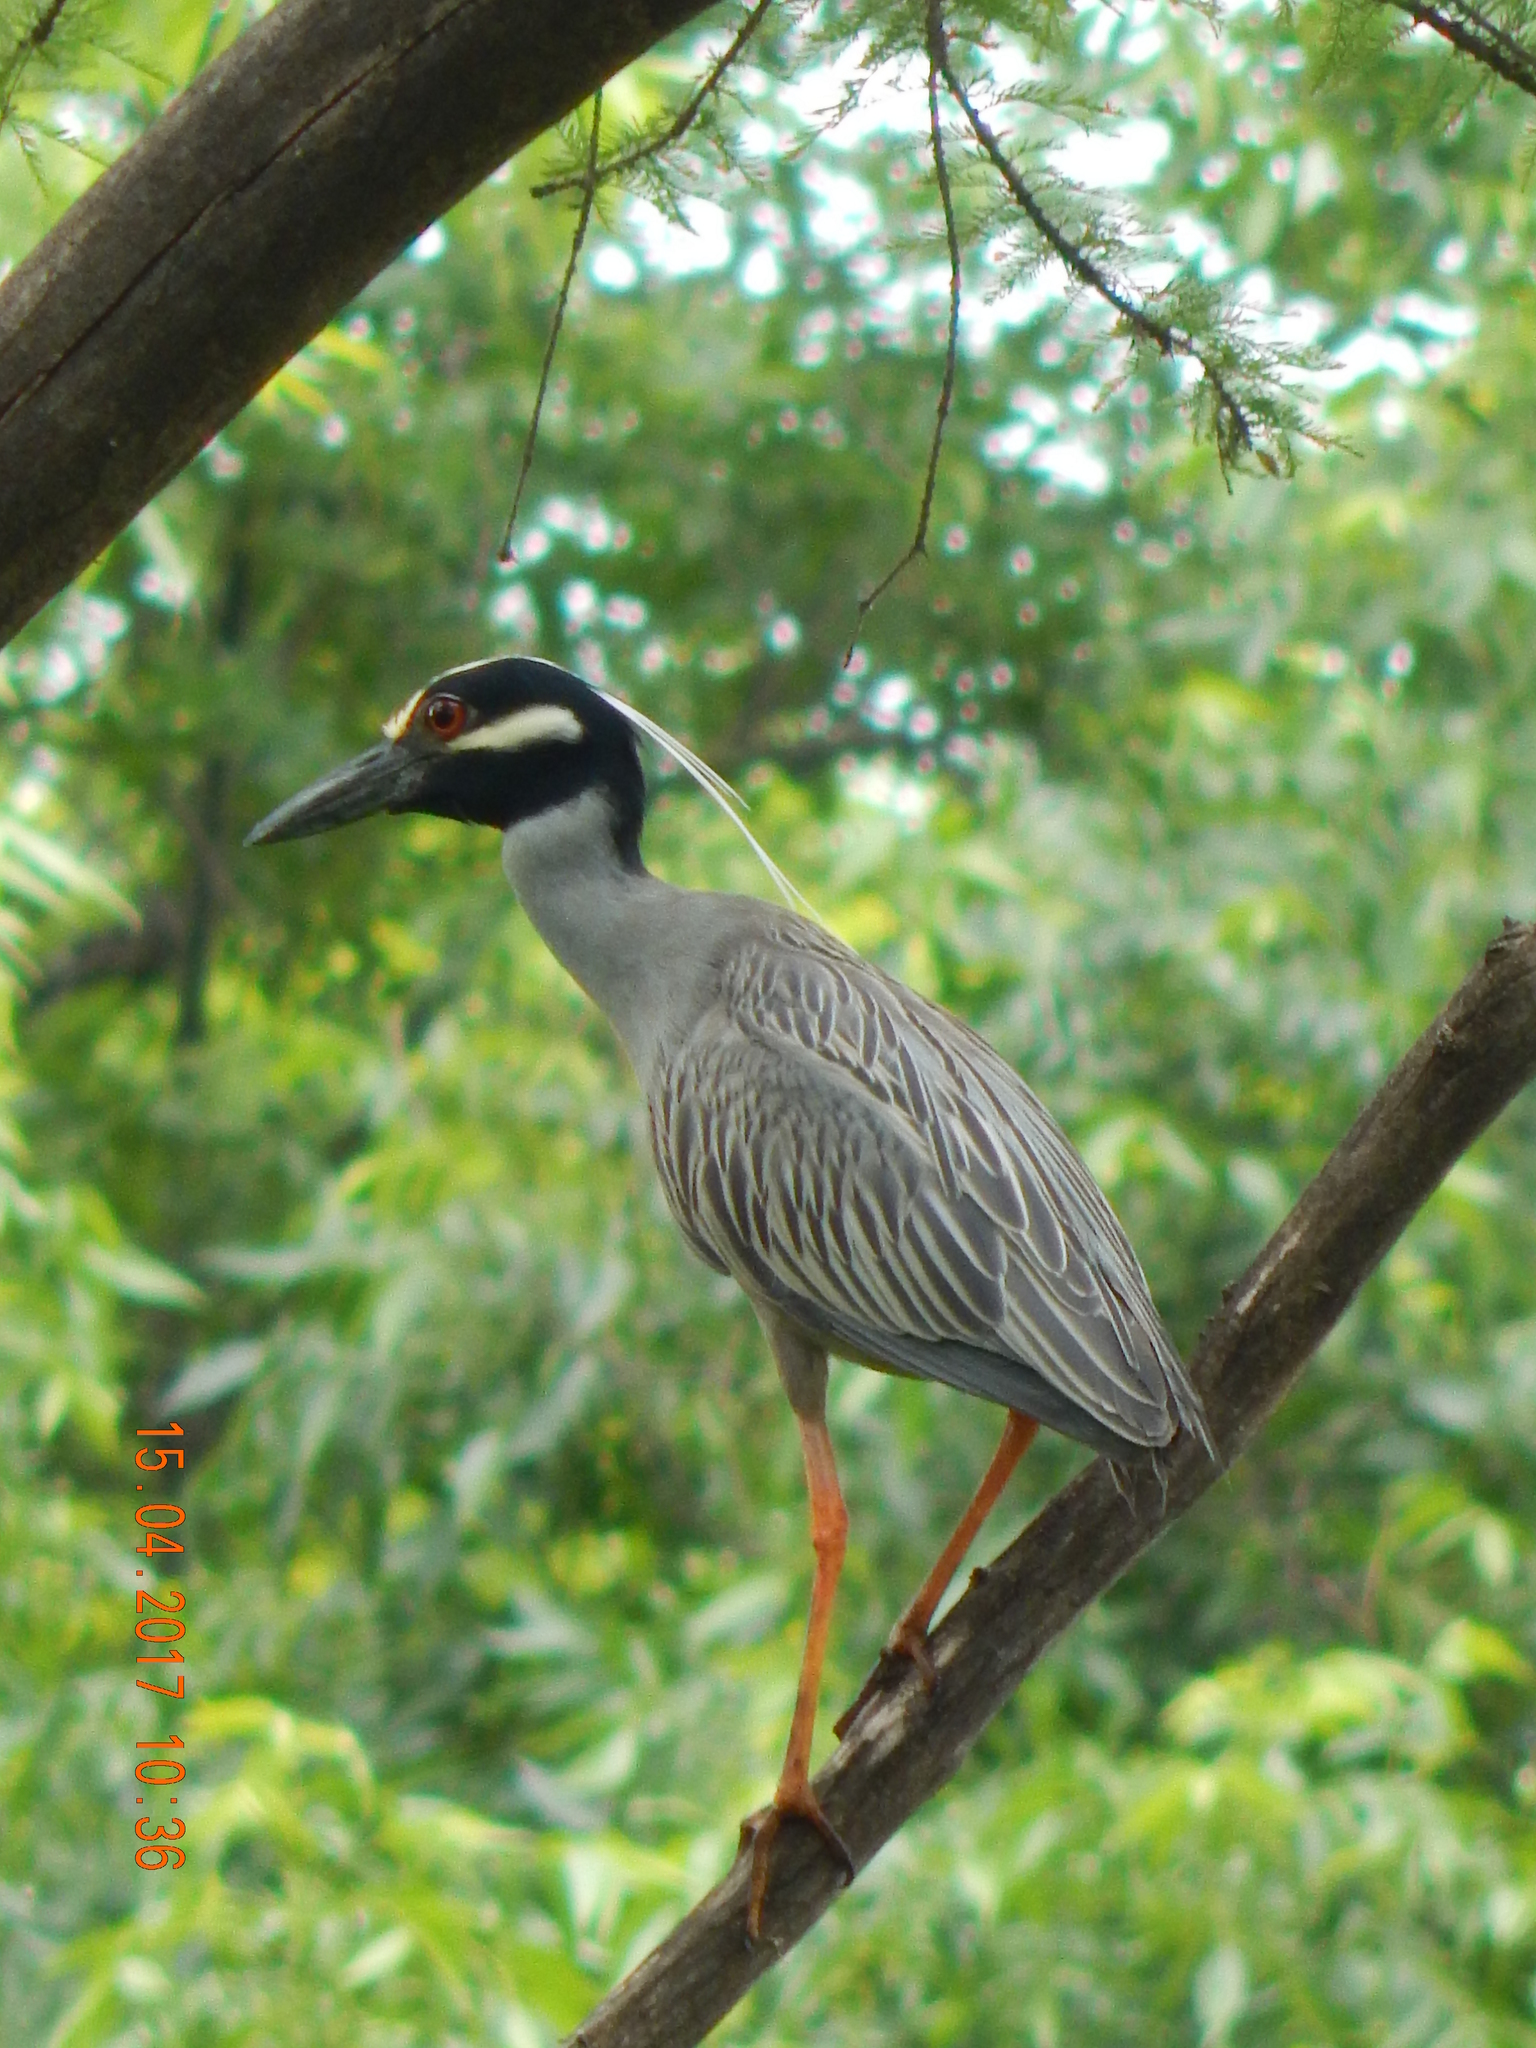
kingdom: Animalia
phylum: Chordata
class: Aves
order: Pelecaniformes
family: Ardeidae
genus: Nyctanassa
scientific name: Nyctanassa violacea
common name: Yellow-crowned night heron
